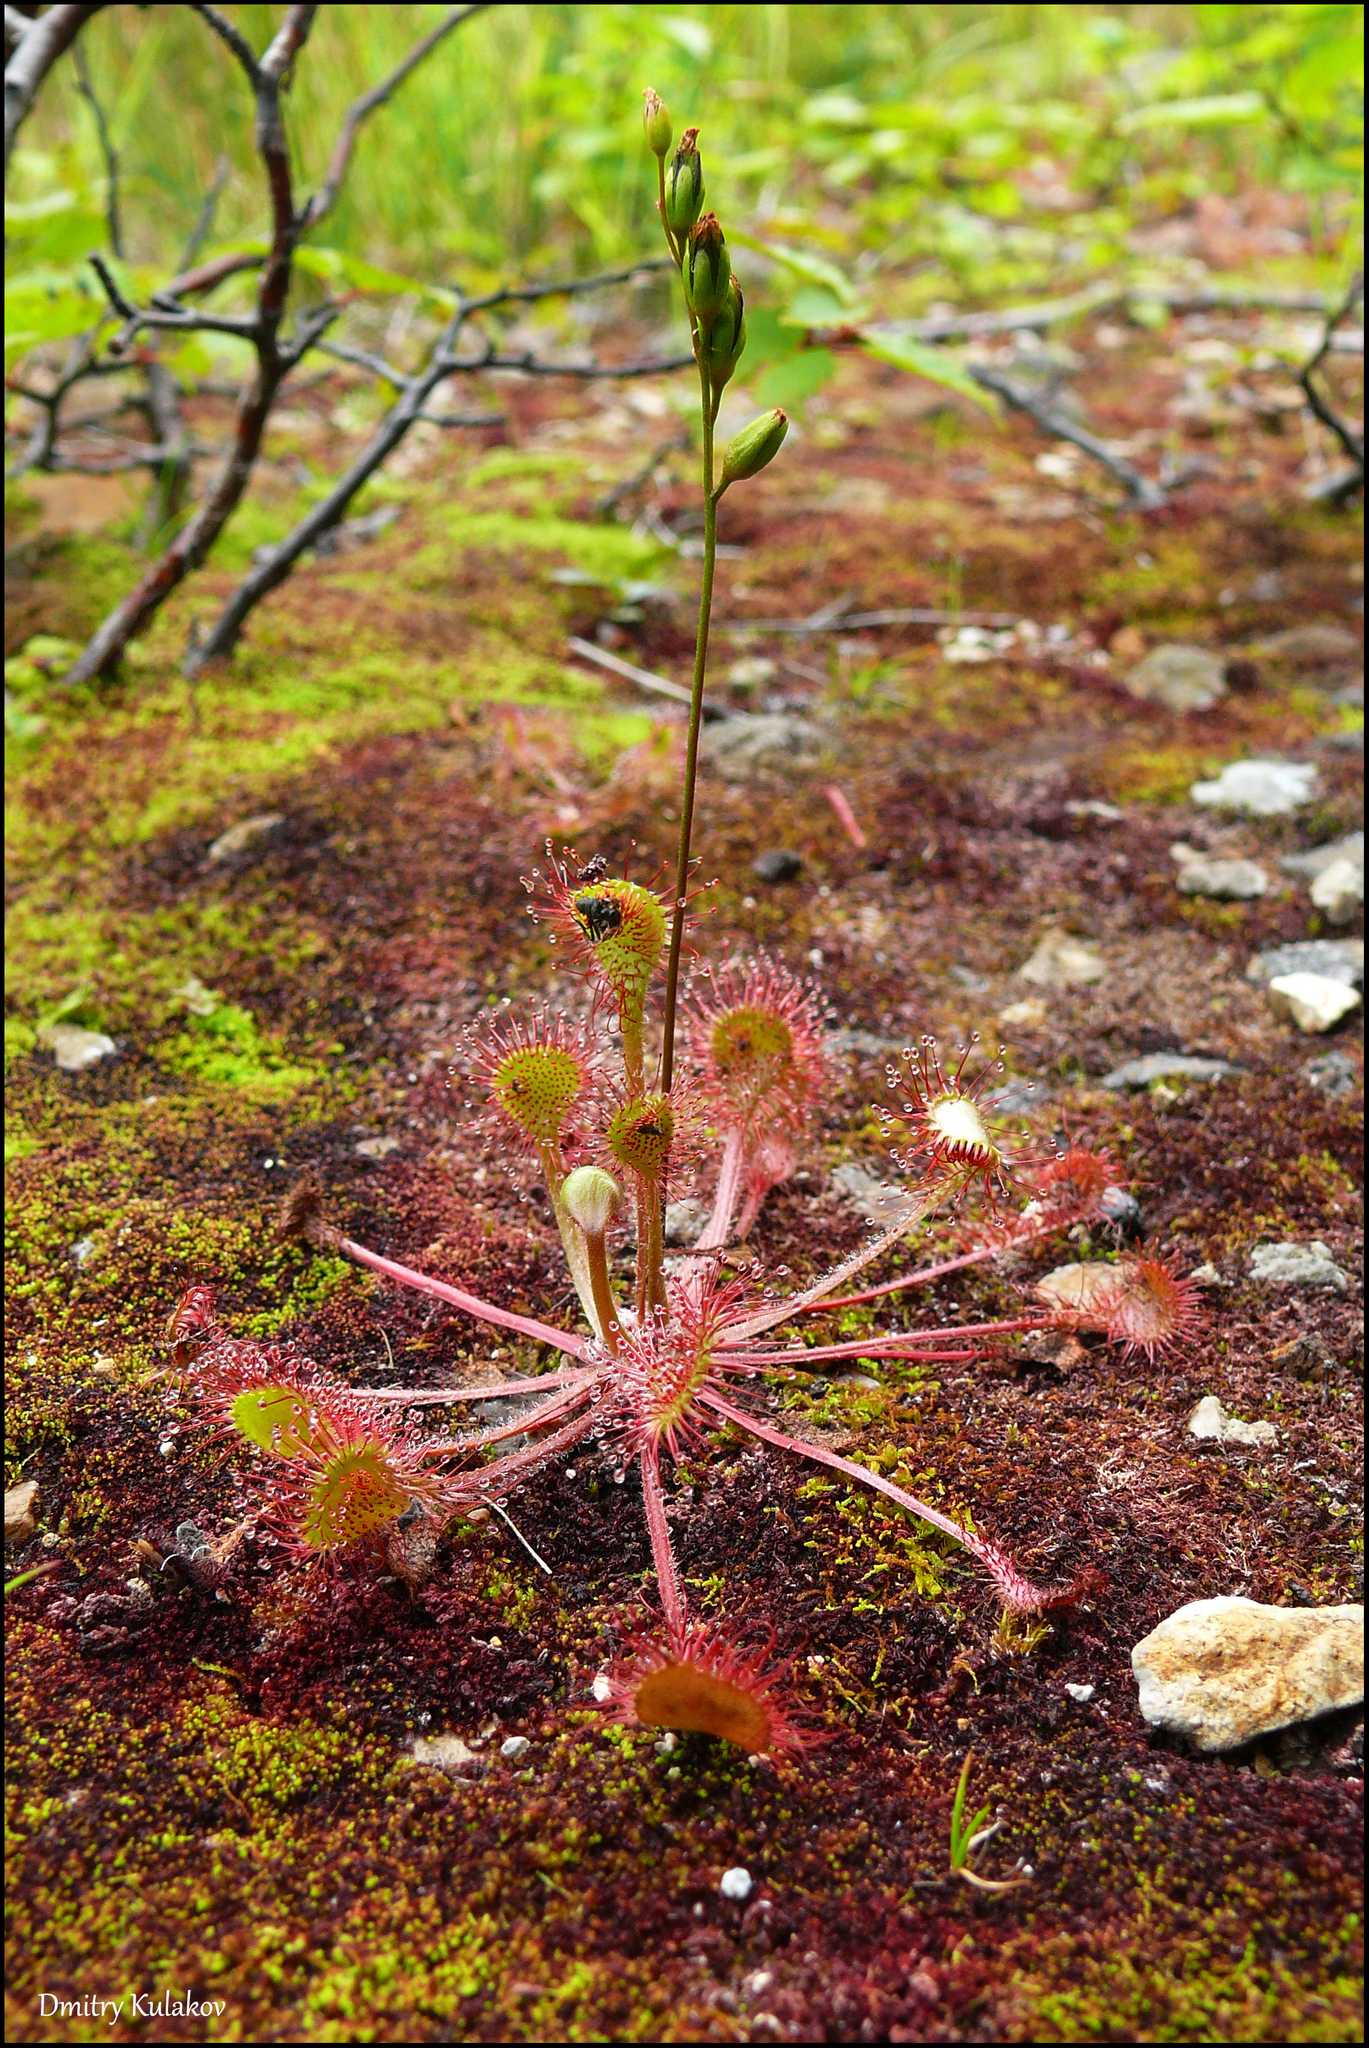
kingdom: Plantae
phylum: Tracheophyta
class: Magnoliopsida
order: Caryophyllales
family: Droseraceae
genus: Drosera
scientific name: Drosera rotundifolia
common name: Round-leaved sundew
